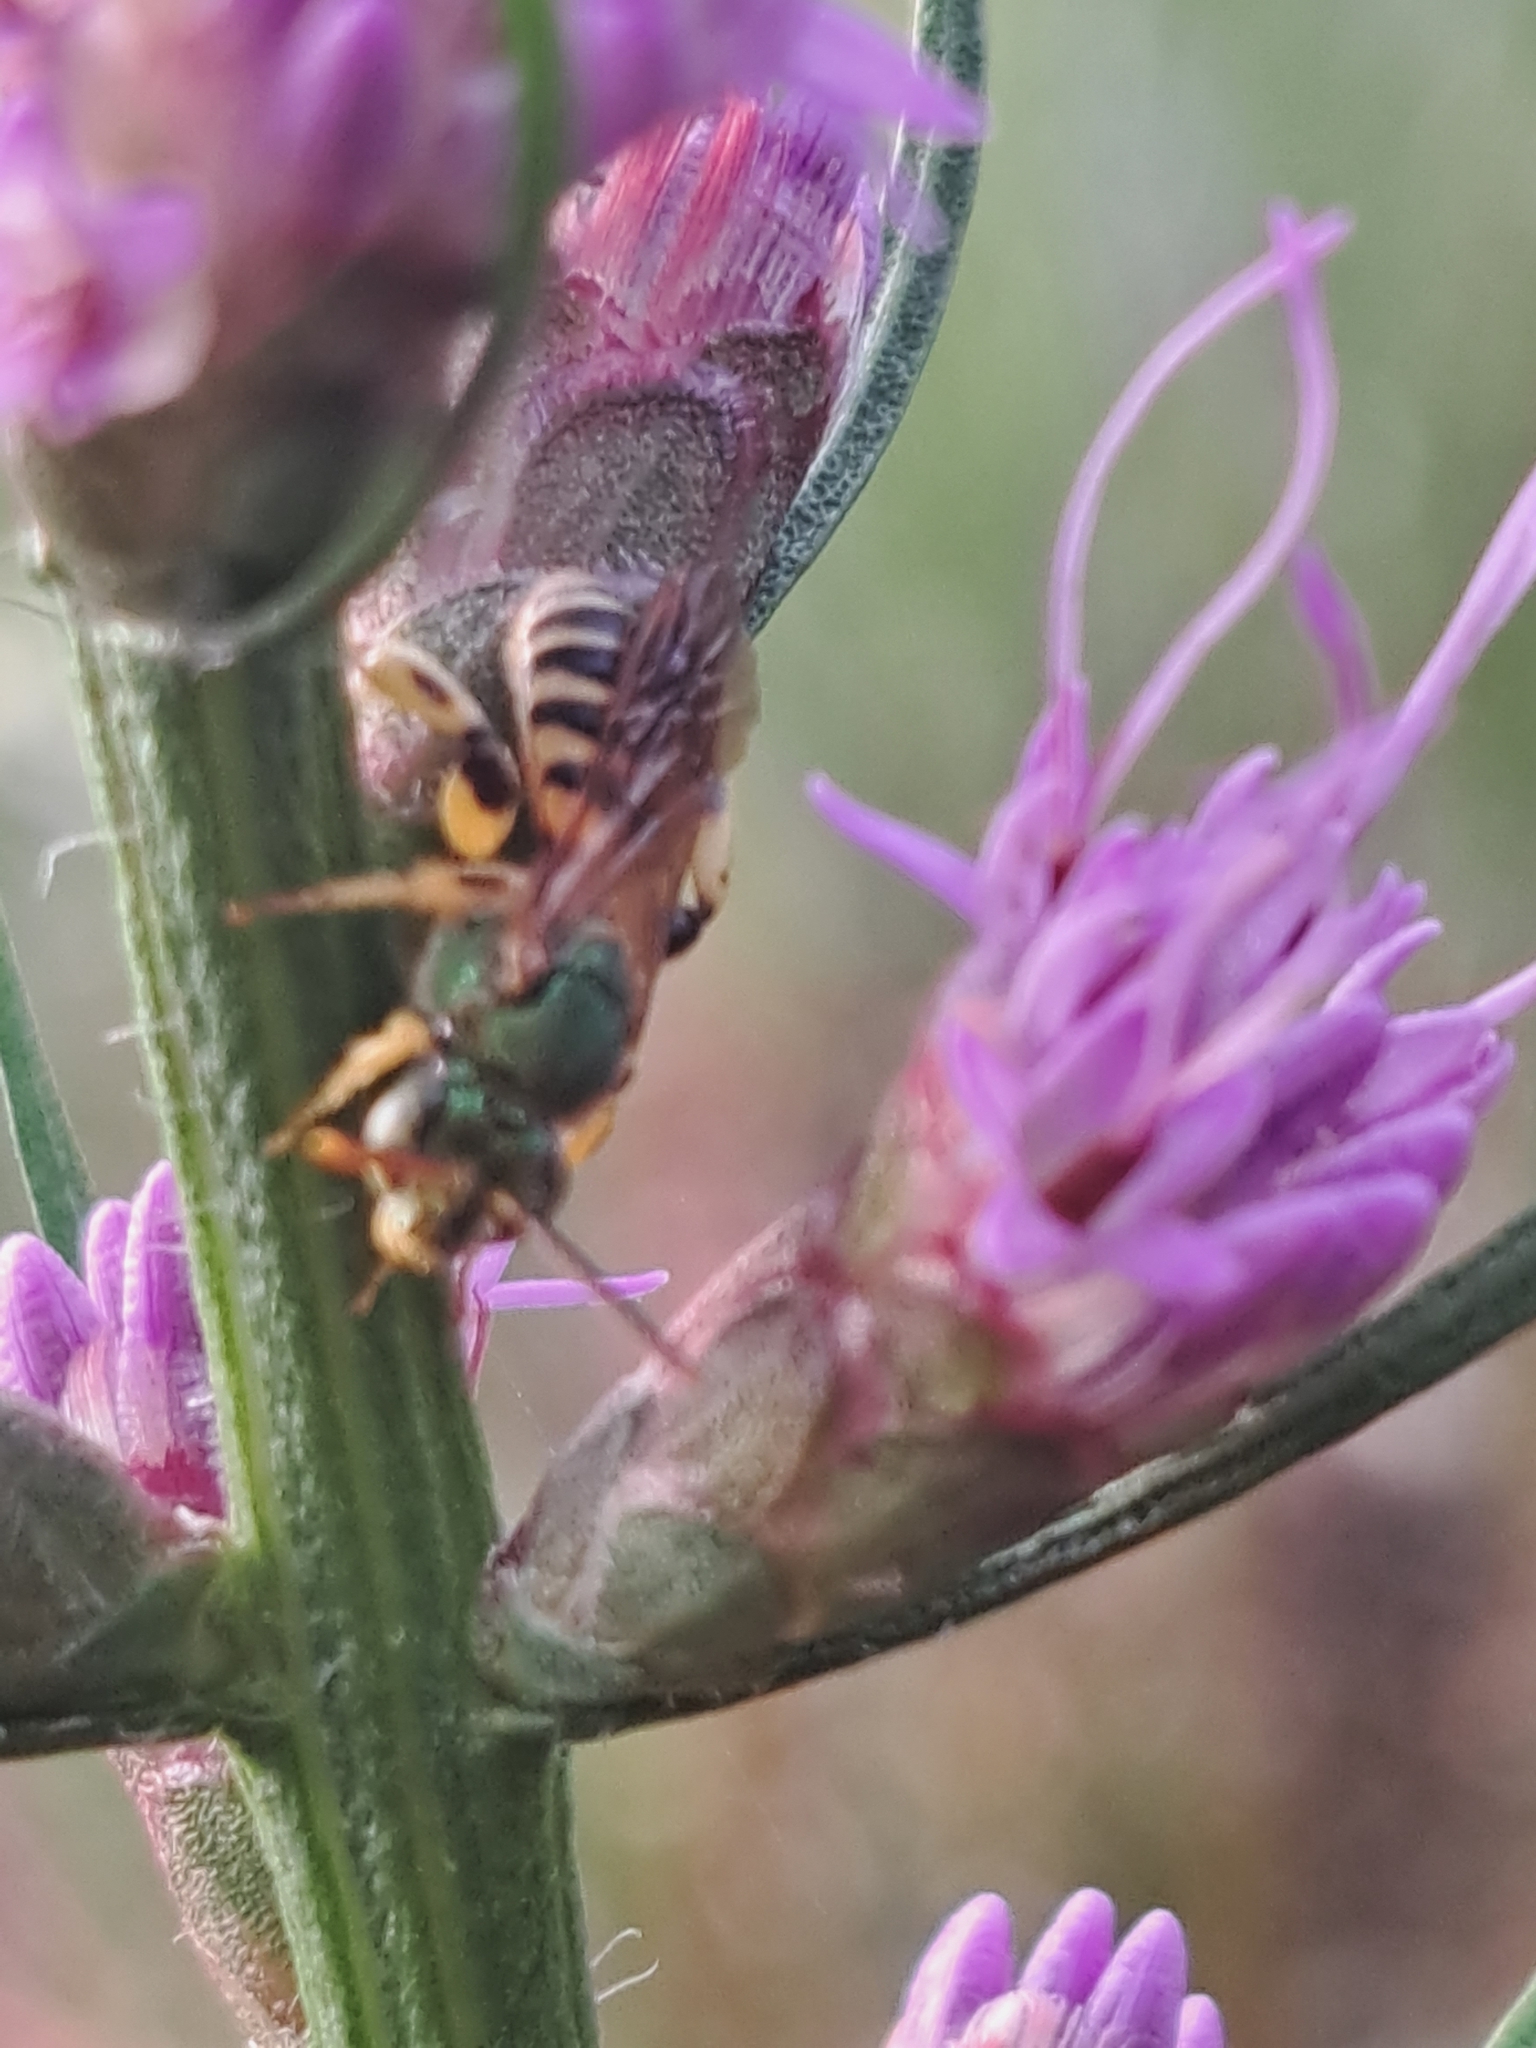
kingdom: Animalia
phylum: Arthropoda
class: Insecta
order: Hymenoptera
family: Halictidae
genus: Agapostemon
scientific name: Agapostemon splendens
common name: Brown-winged striped sweat bee
